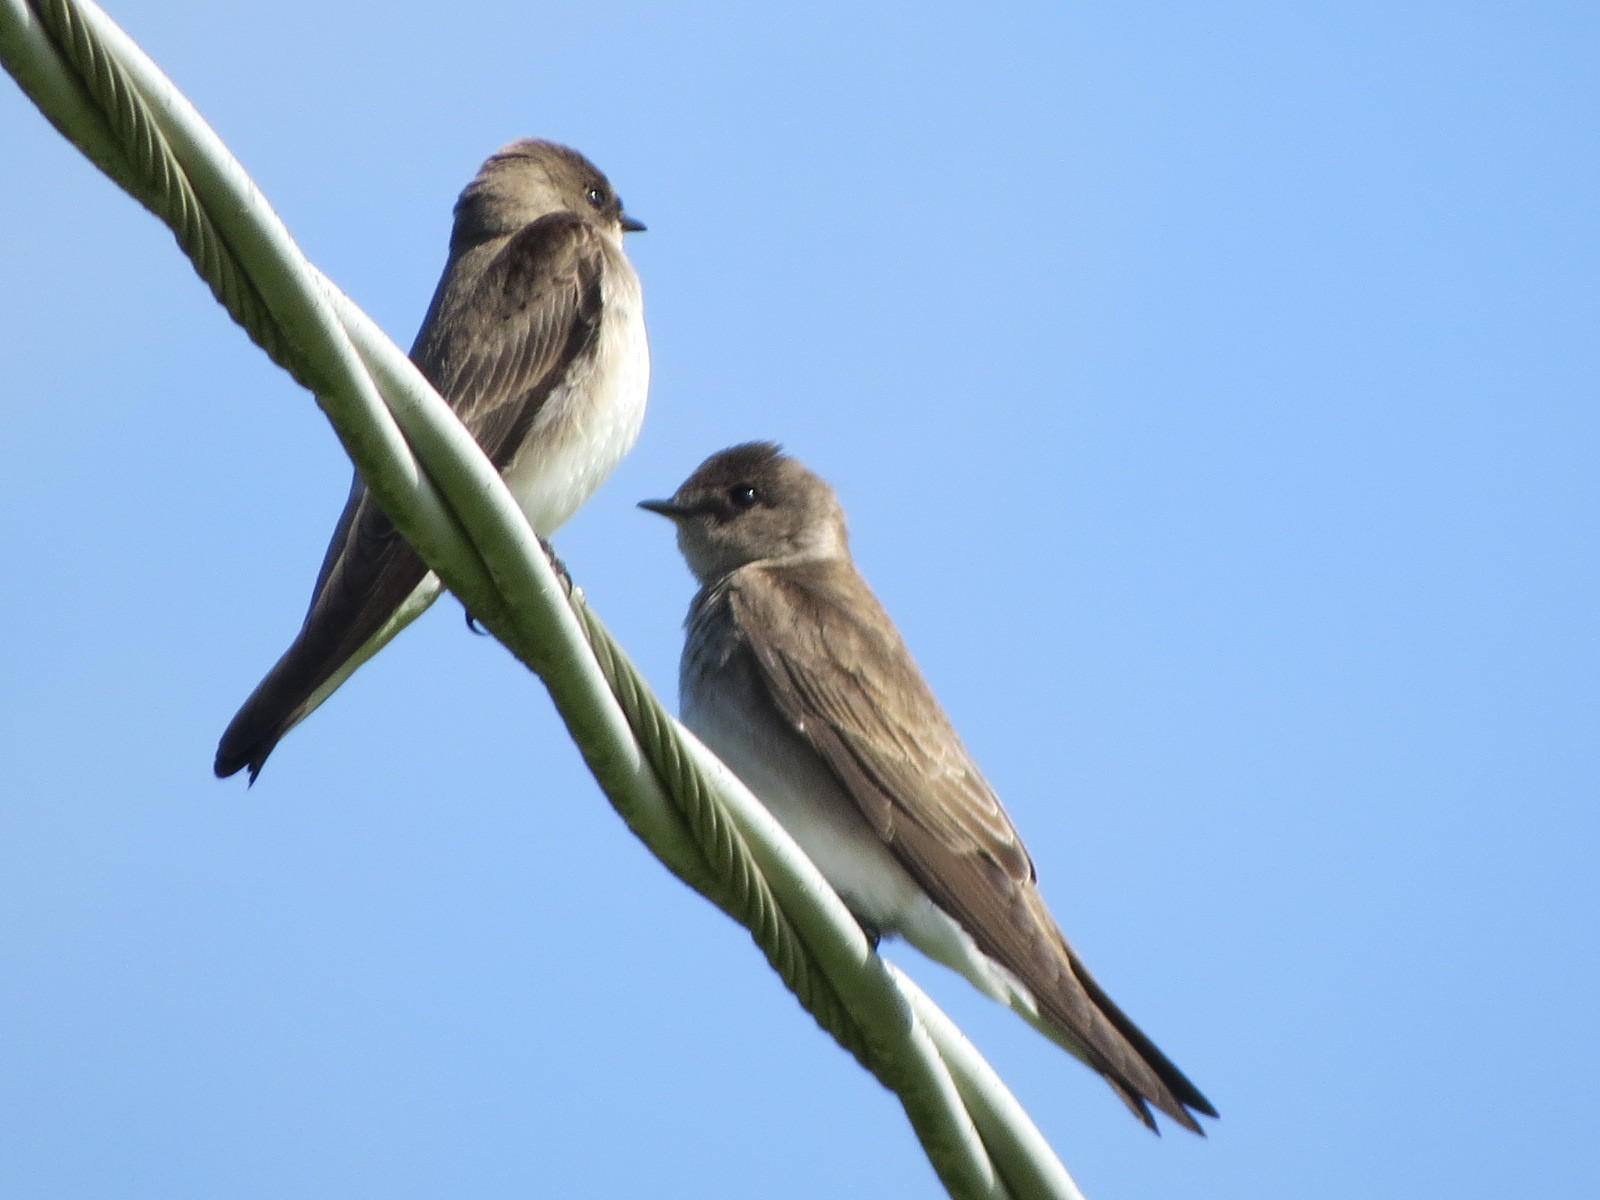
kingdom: Animalia
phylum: Chordata
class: Aves
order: Passeriformes
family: Hirundinidae
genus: Stelgidopteryx
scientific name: Stelgidopteryx serripennis
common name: Northern rough-winged swallow
